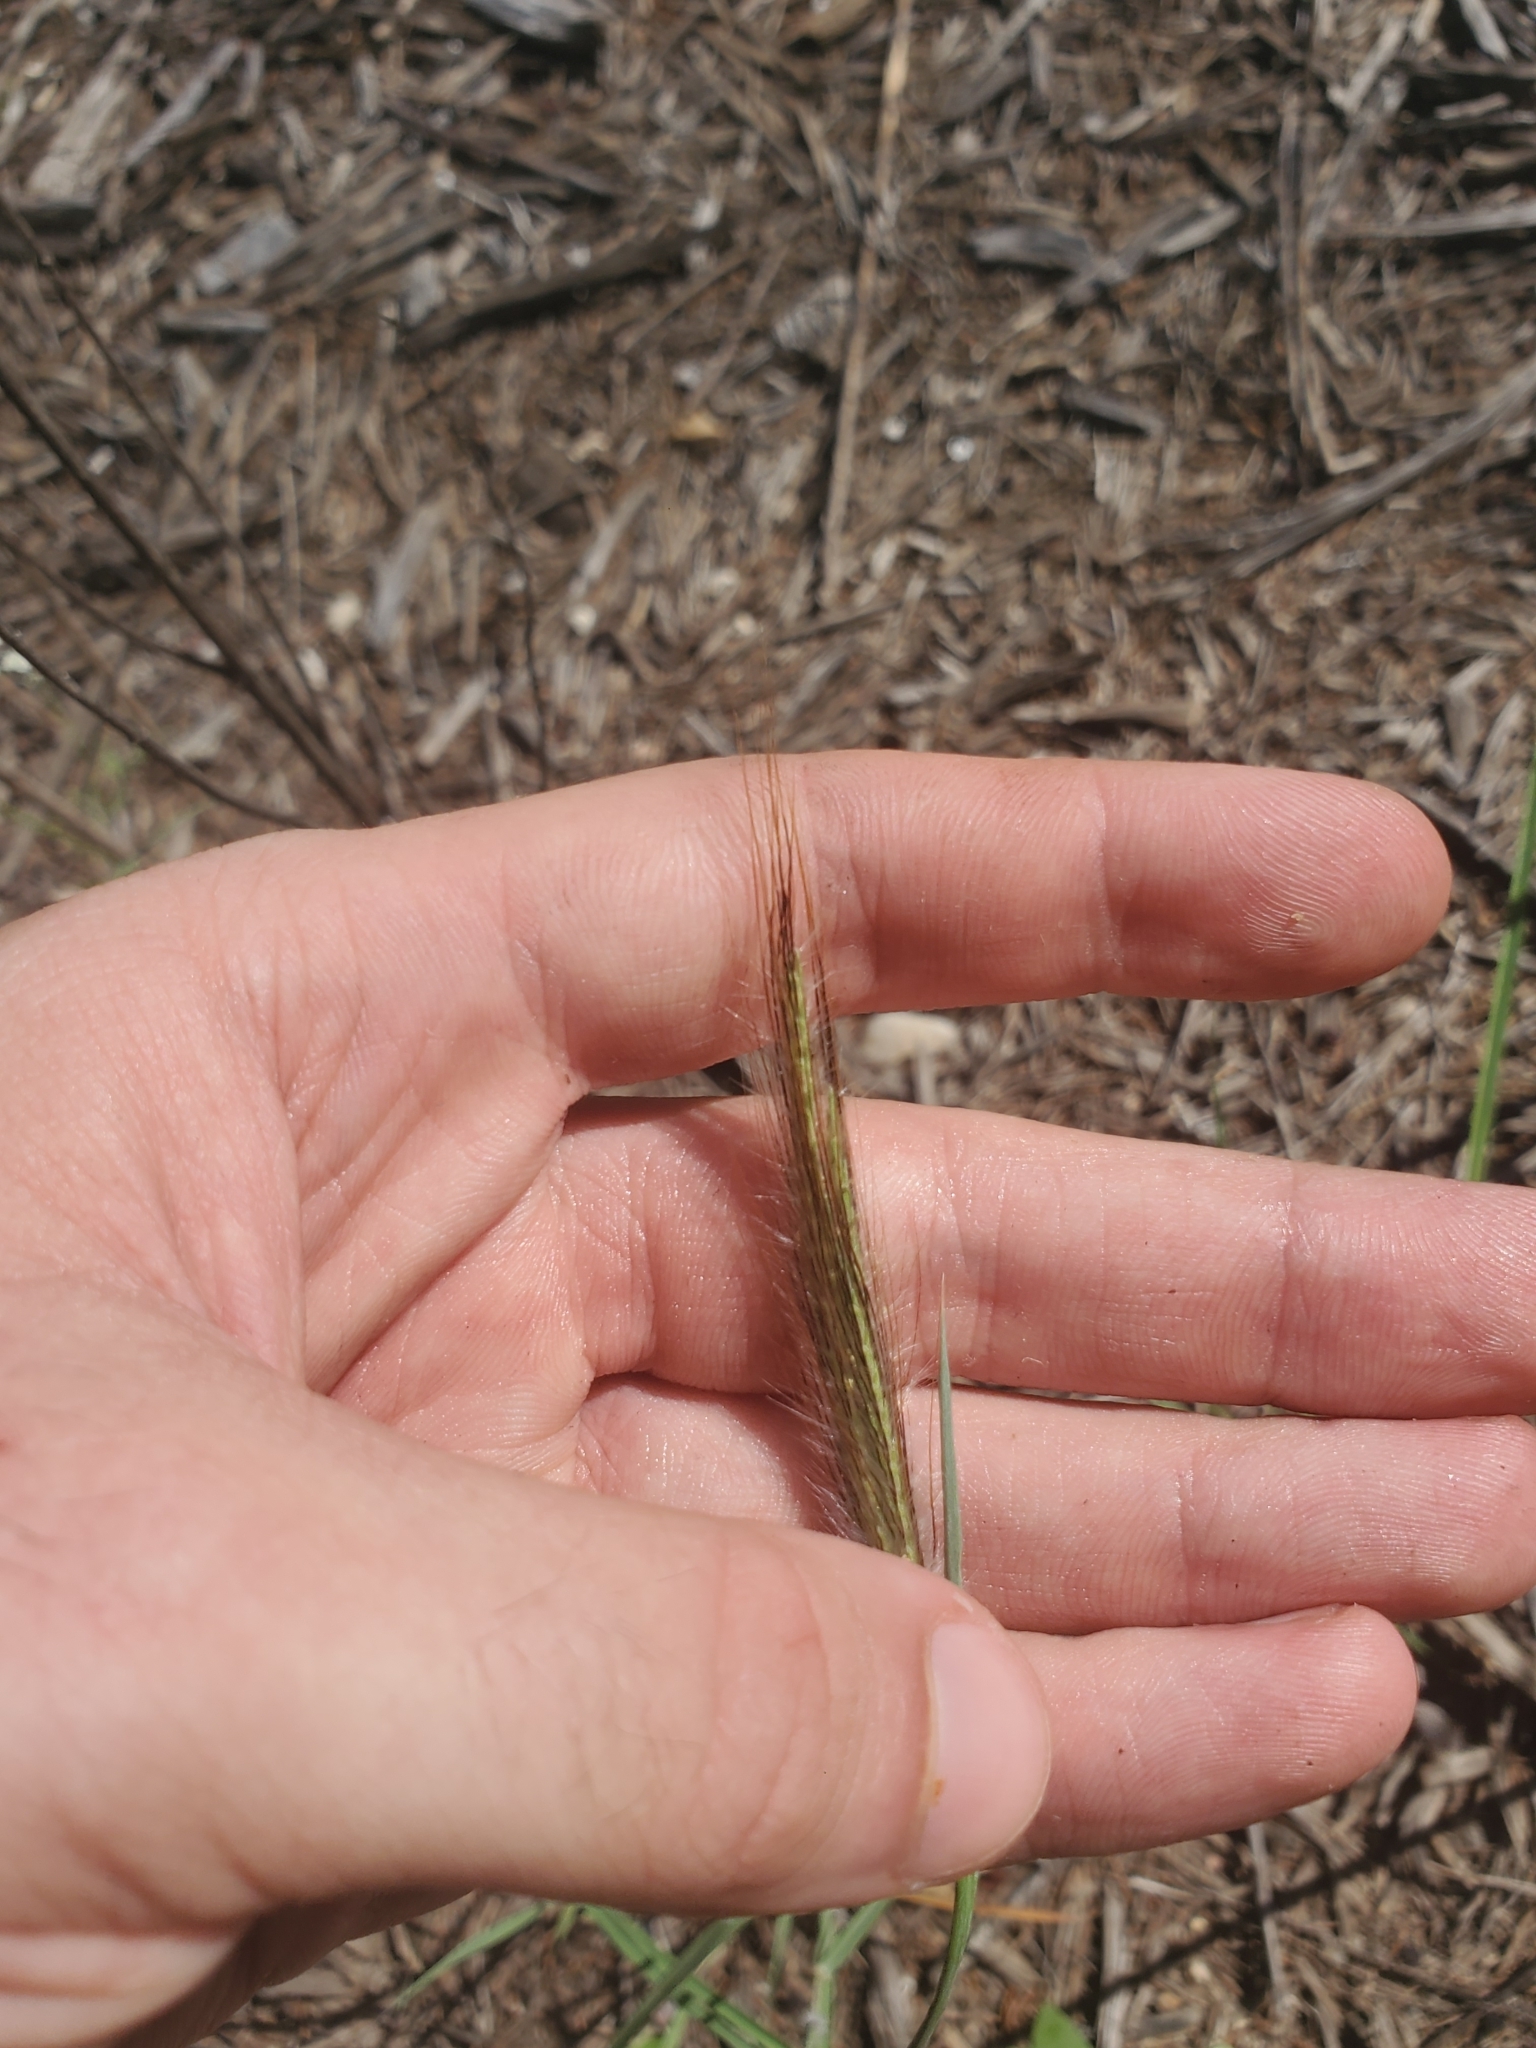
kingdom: Plantae
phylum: Tracheophyta
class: Liliopsida
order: Poales
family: Poaceae
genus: Dichanthium
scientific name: Dichanthium sericeum
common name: Silky bluestem
